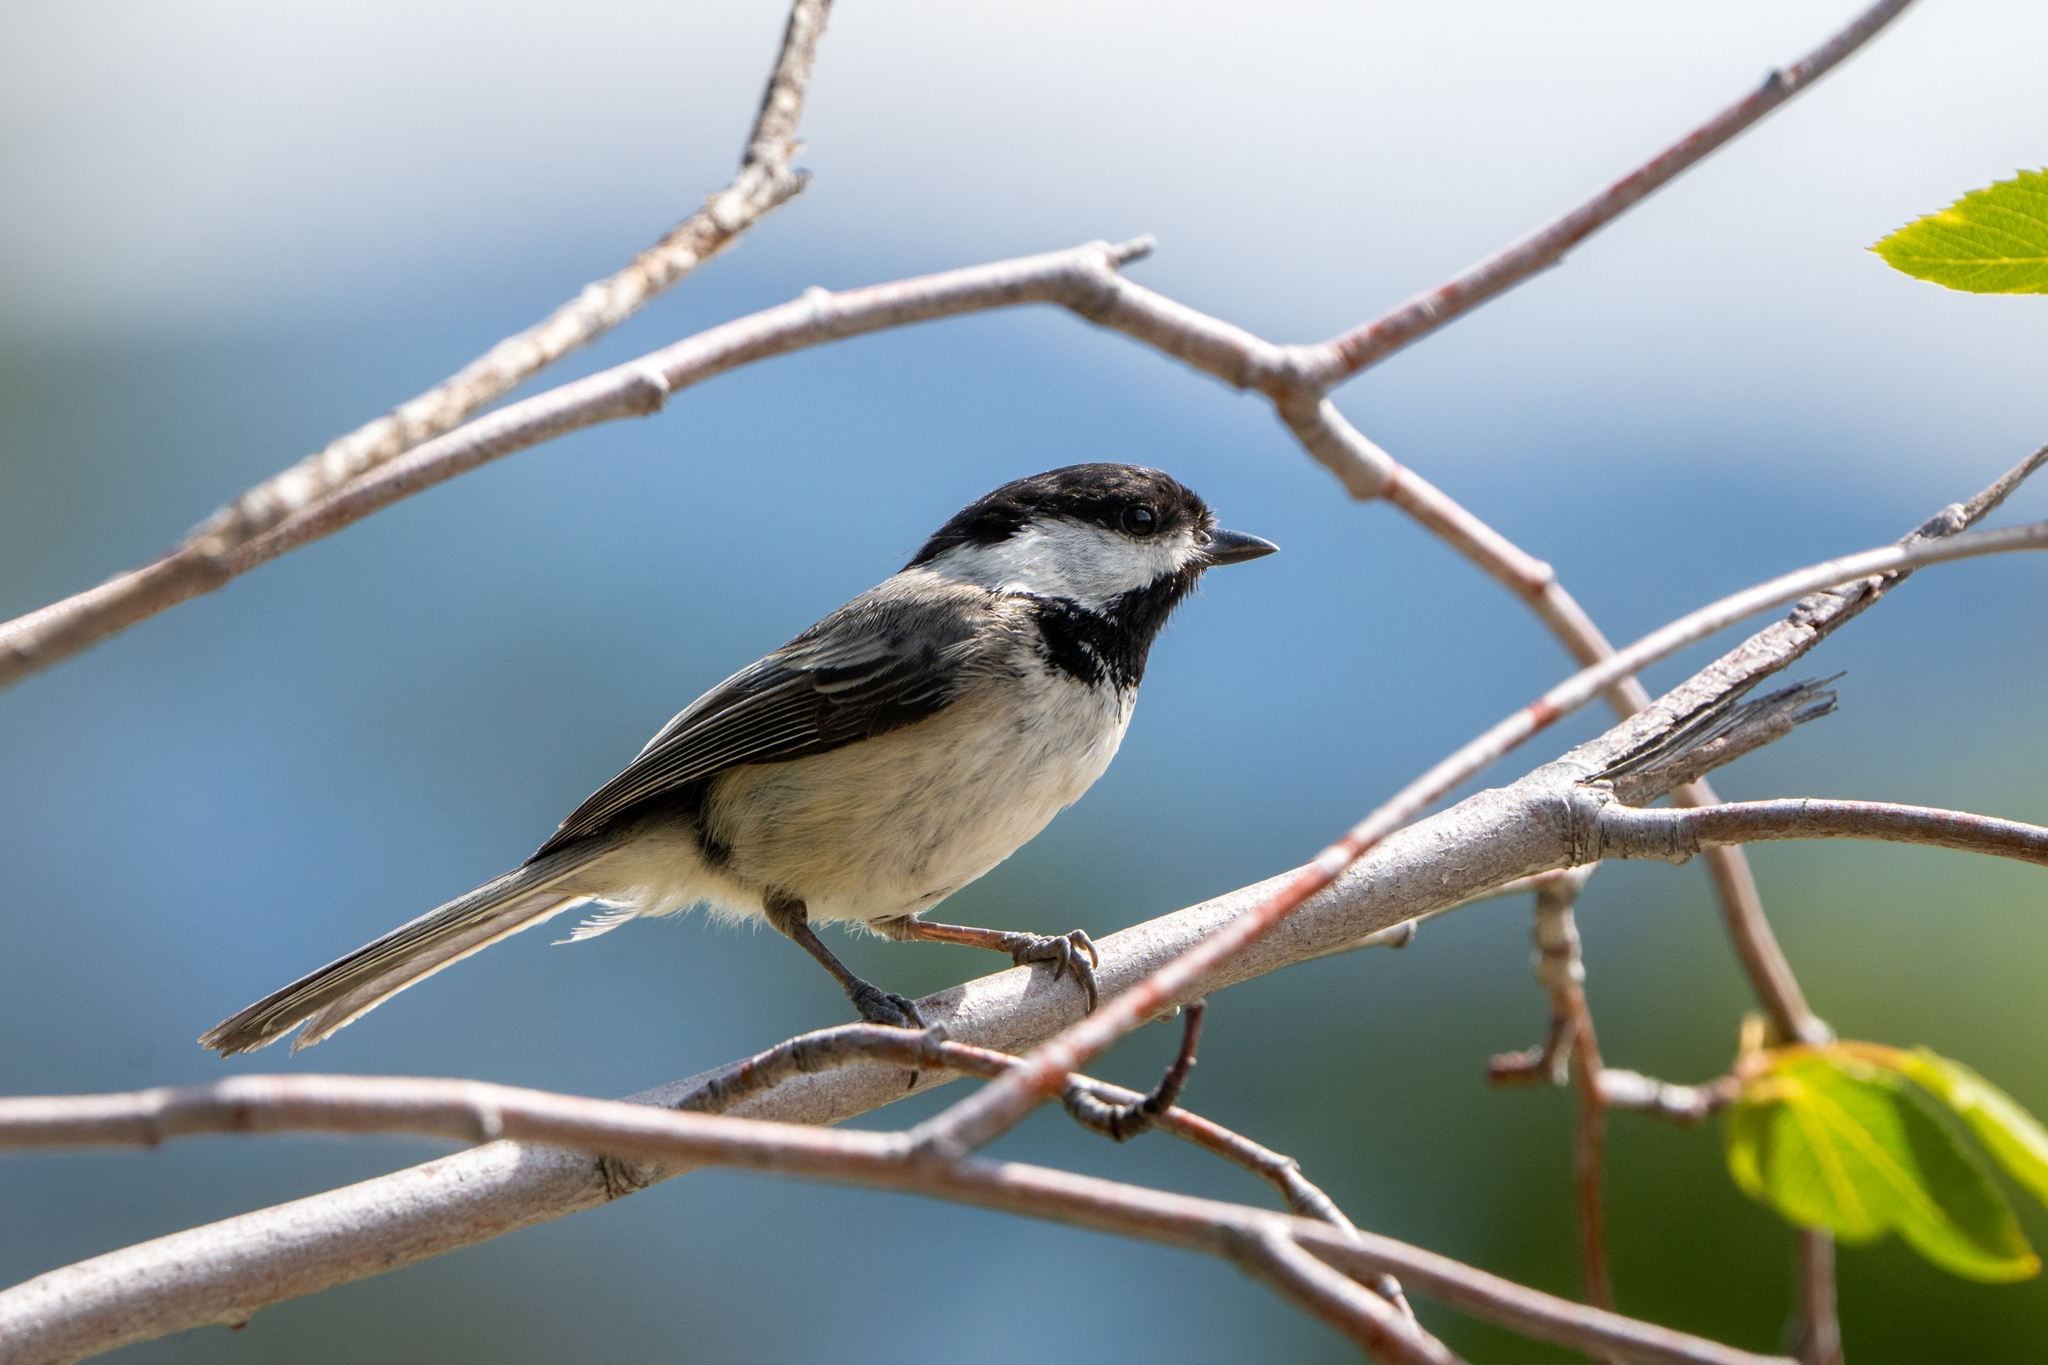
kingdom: Animalia
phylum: Chordata
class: Aves
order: Passeriformes
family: Paridae
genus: Poecile
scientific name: Poecile atricapillus
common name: Black-capped chickadee
